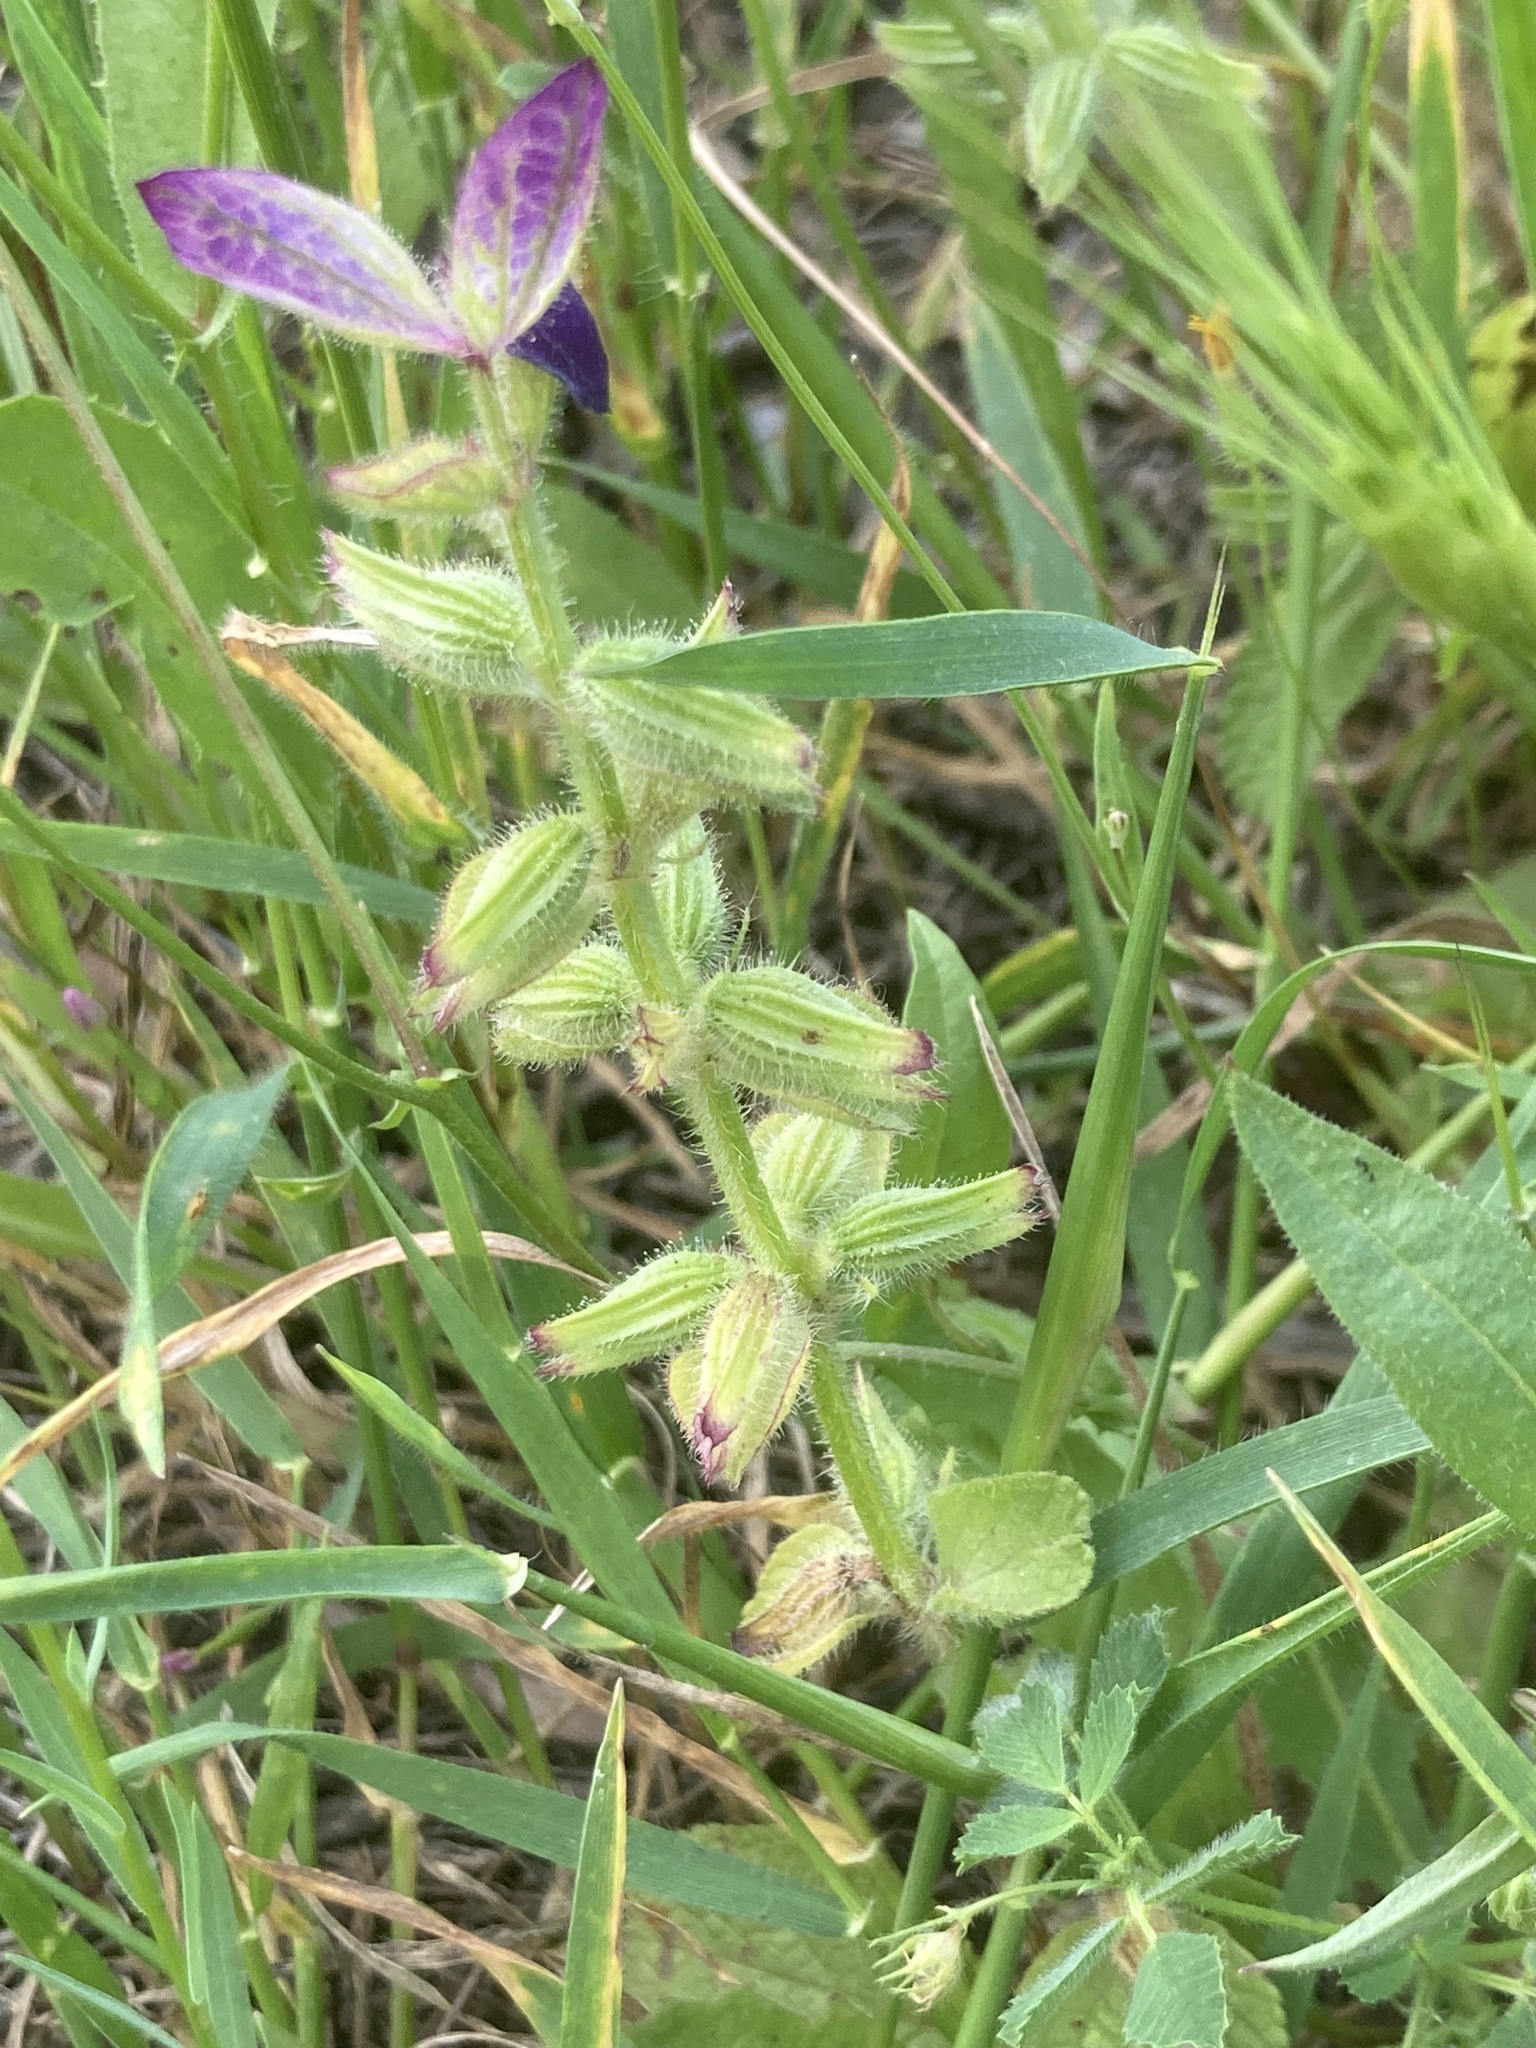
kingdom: Plantae
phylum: Tracheophyta
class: Magnoliopsida
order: Lamiales
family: Lamiaceae
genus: Salvia
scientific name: Salvia viridis
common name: Annual clary
